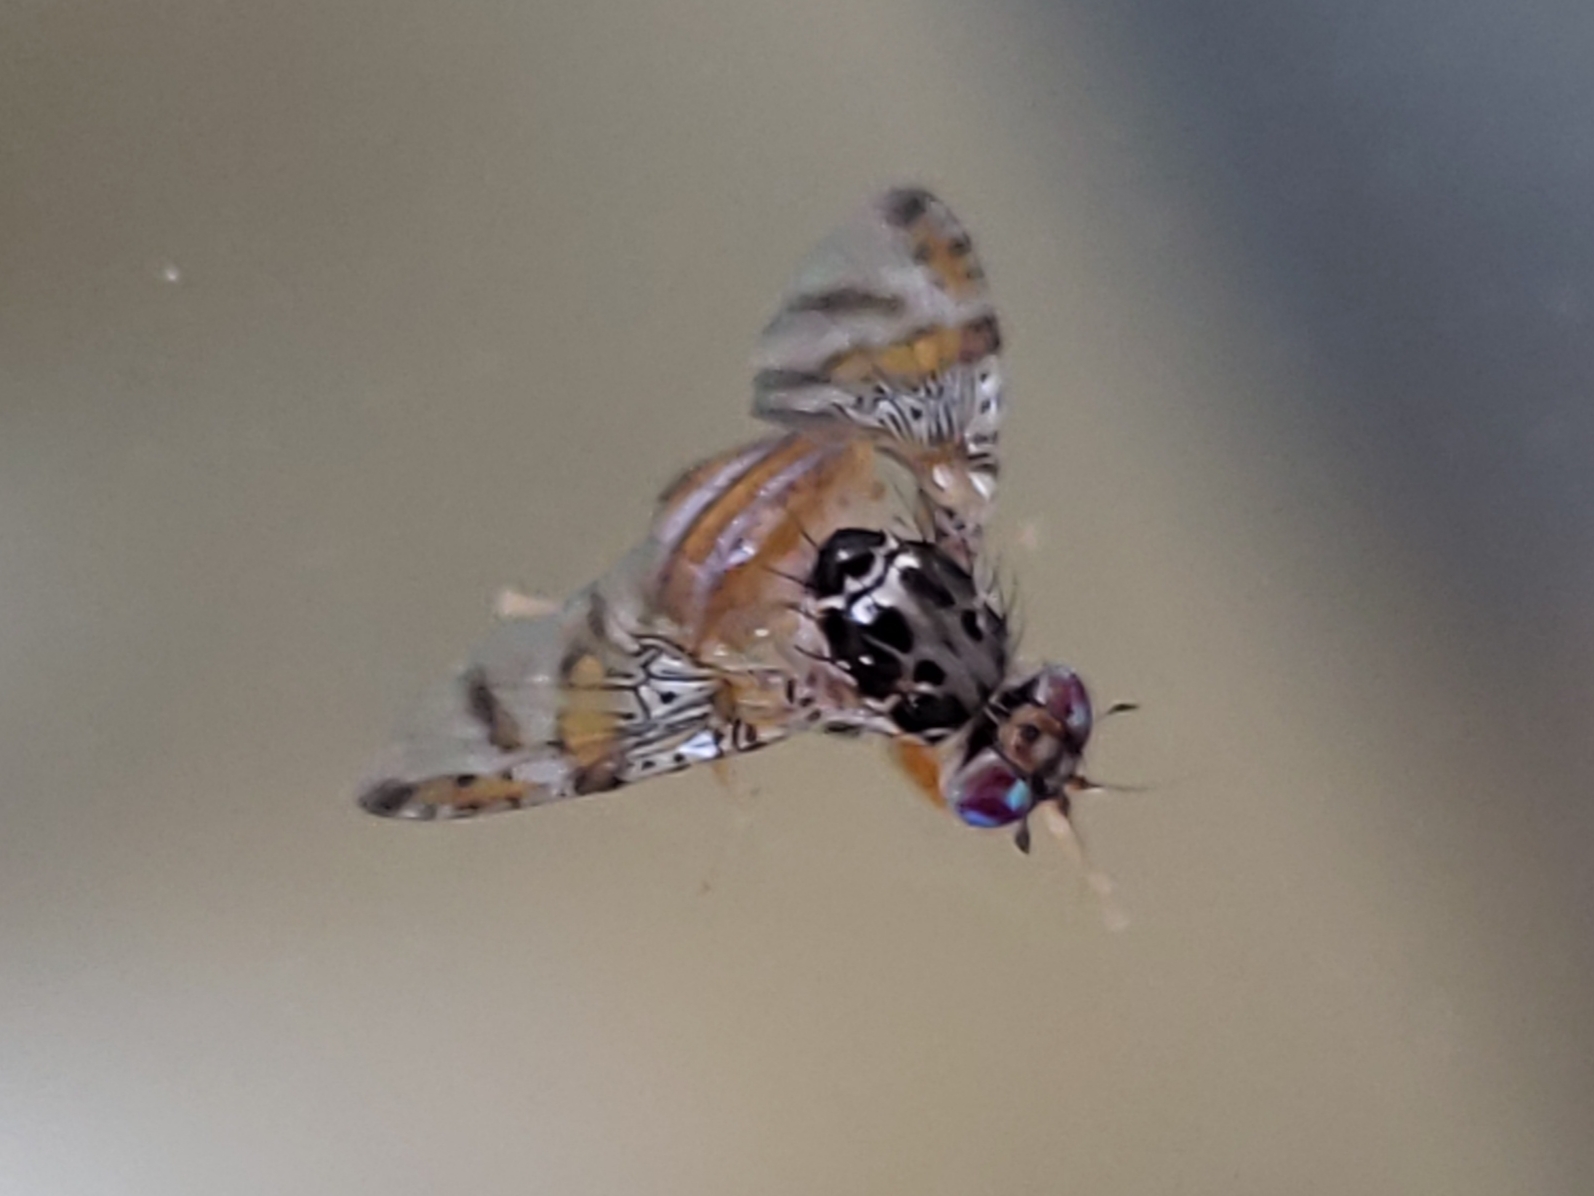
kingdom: Animalia
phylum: Arthropoda
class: Insecta
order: Diptera
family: Tephritidae
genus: Ceratitis
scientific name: Ceratitis capitata
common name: Mediterranean fruit fly
